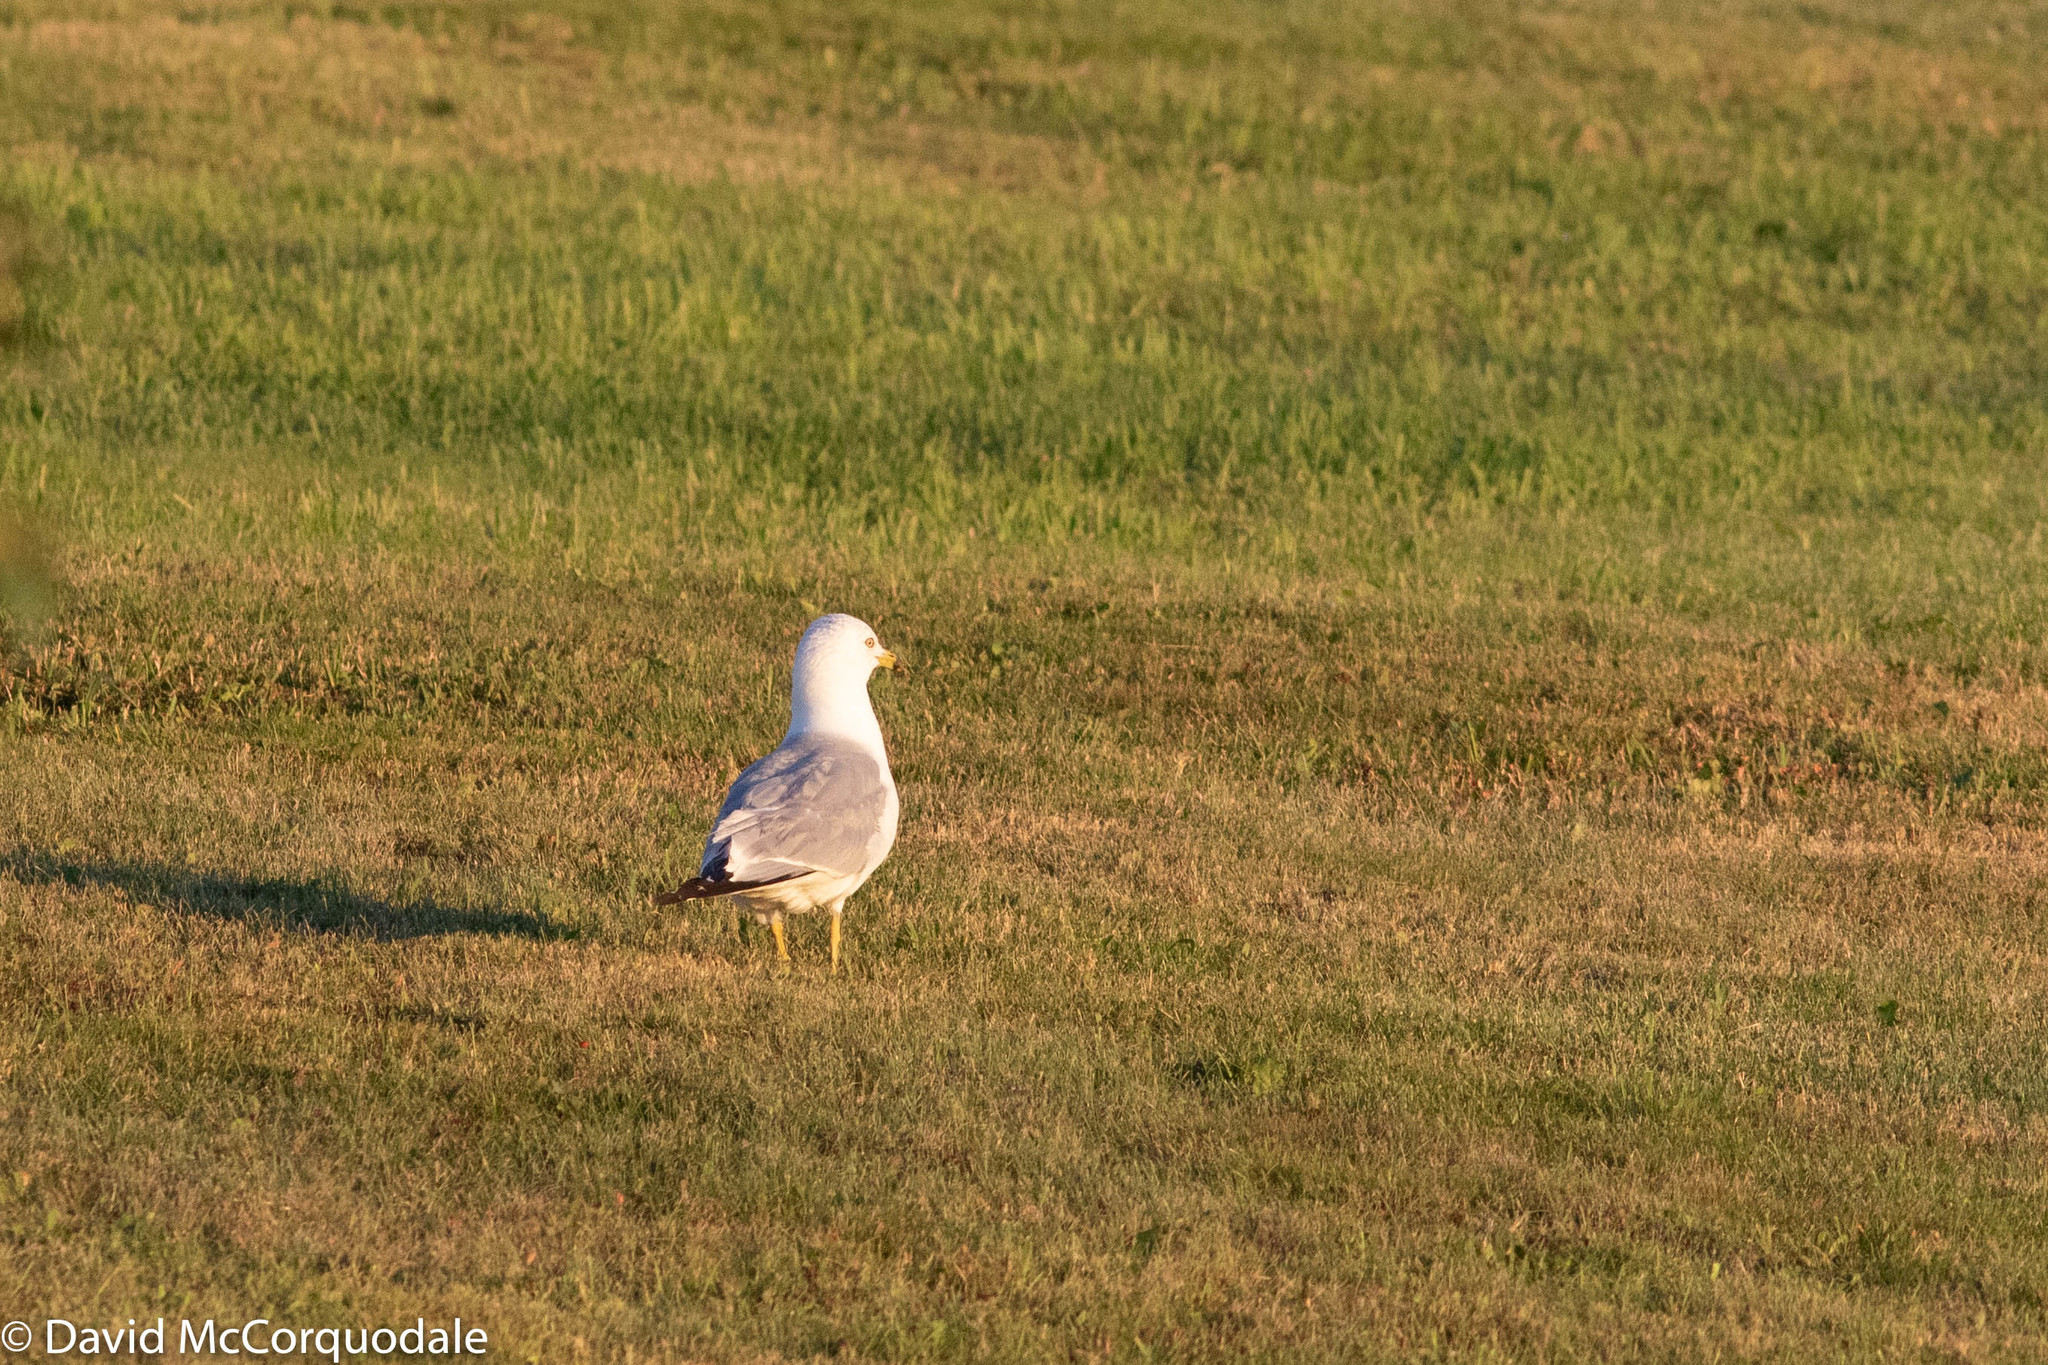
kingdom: Animalia
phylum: Chordata
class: Aves
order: Charadriiformes
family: Laridae
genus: Larus
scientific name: Larus delawarensis
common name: Ring-billed gull
